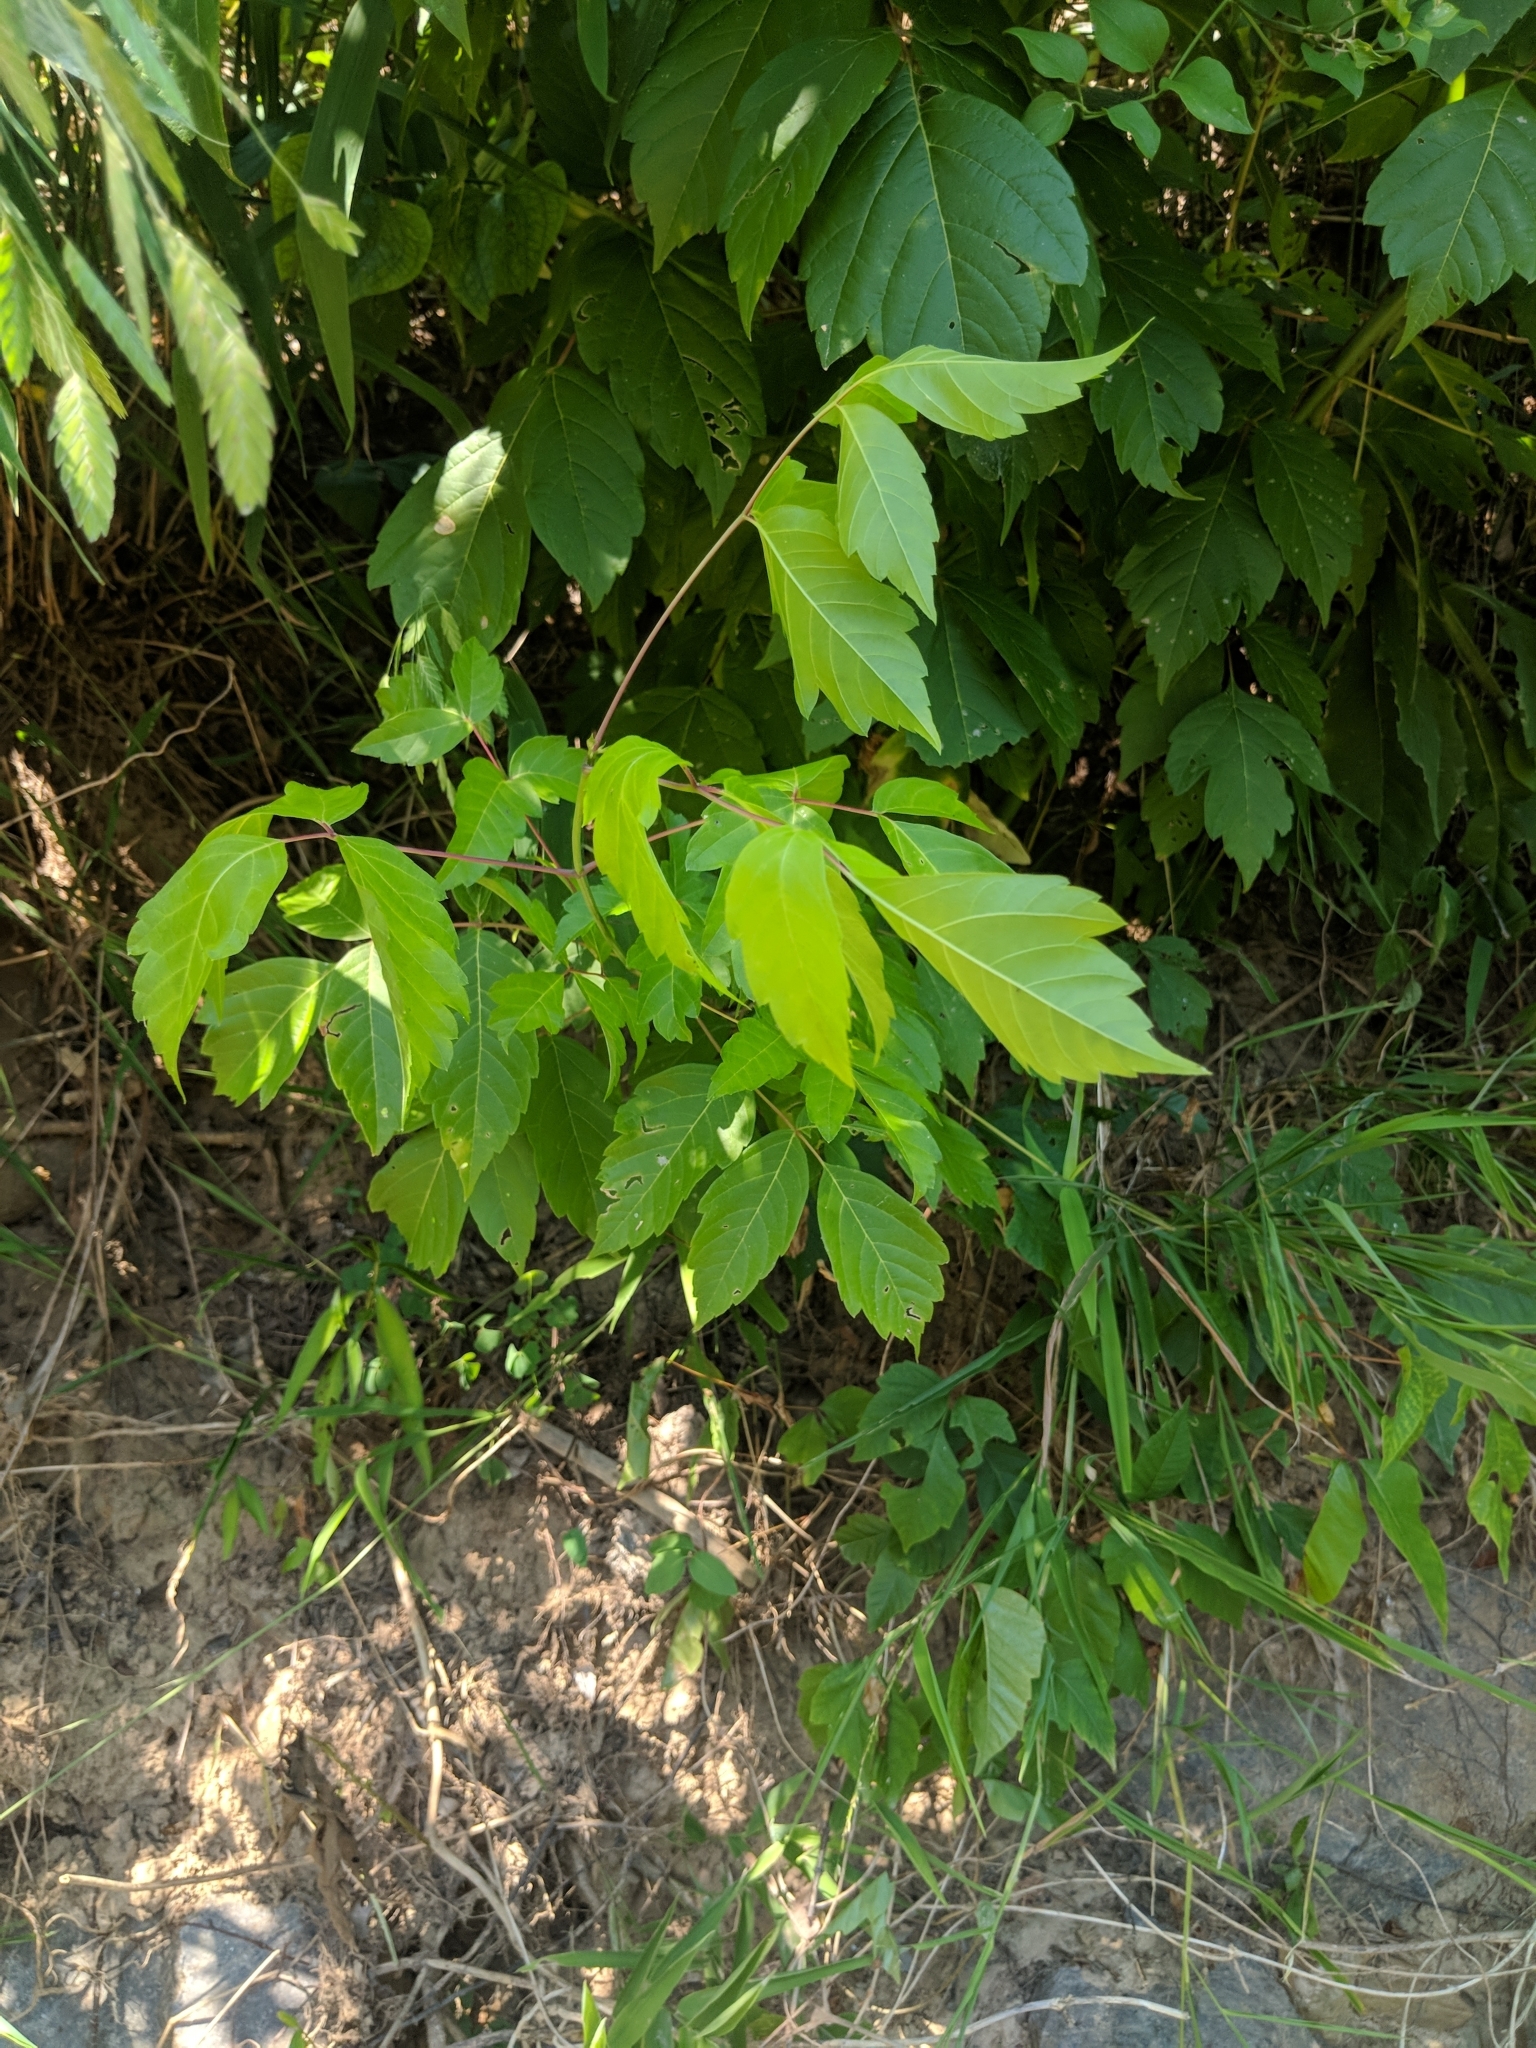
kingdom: Plantae
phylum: Tracheophyta
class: Magnoliopsida
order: Sapindales
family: Sapindaceae
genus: Acer
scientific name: Acer negundo
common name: Ashleaf maple
